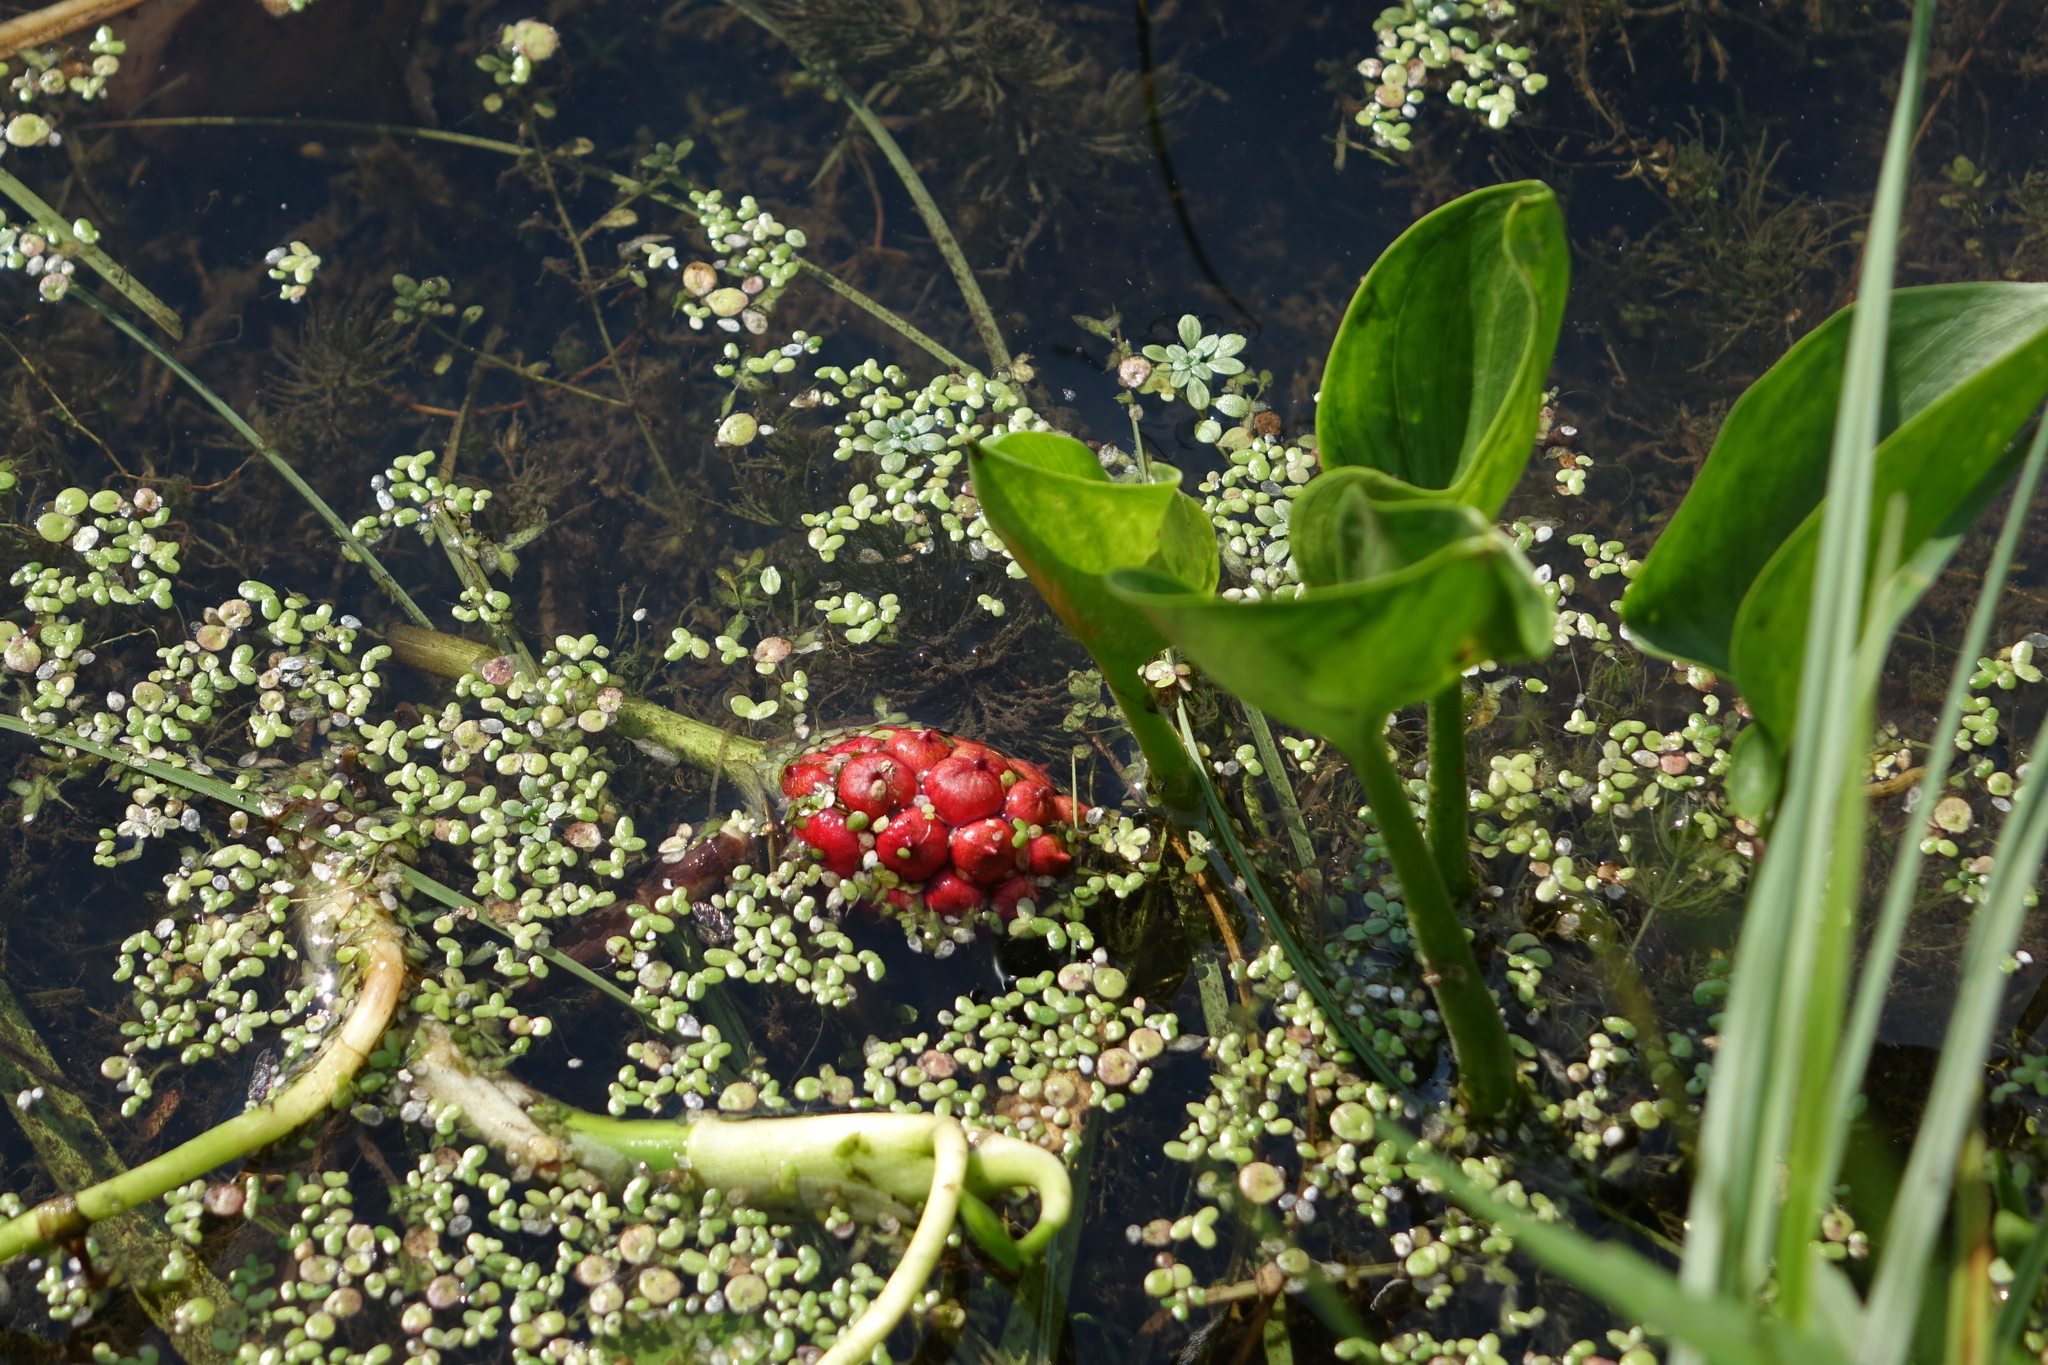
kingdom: Plantae
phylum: Tracheophyta
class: Liliopsida
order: Alismatales
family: Araceae
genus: Calla
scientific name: Calla palustris
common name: Bog arum
